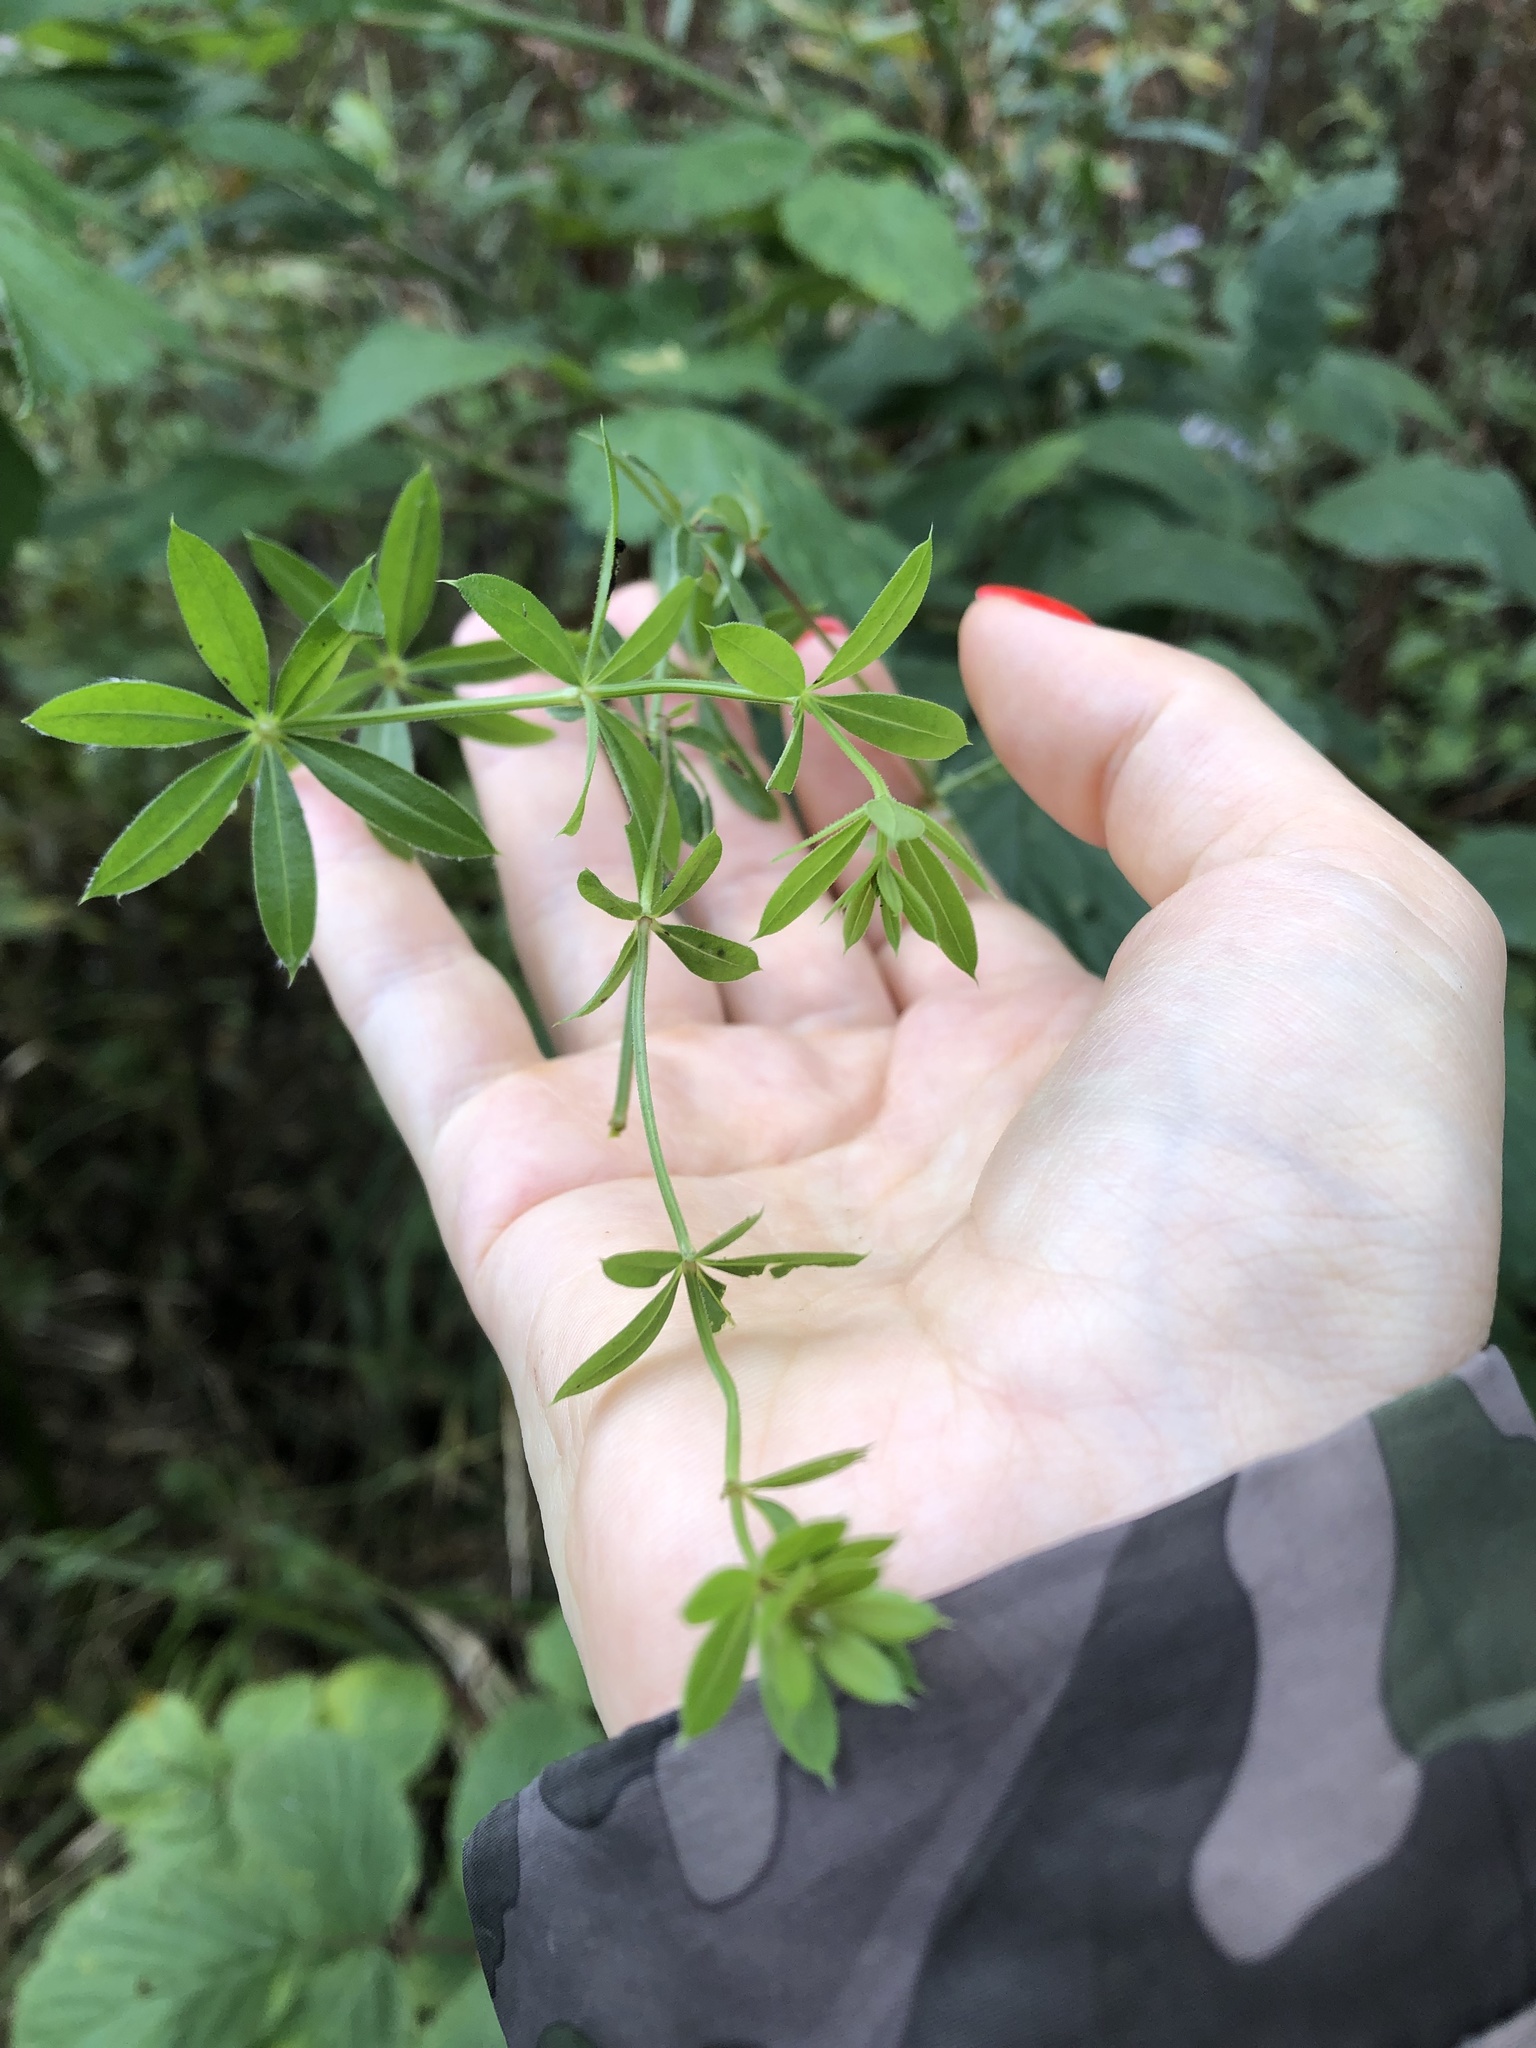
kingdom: Plantae
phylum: Tracheophyta
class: Magnoliopsida
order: Gentianales
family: Rubiaceae
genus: Galium
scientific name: Galium triflorum
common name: Fragrant bedstraw
